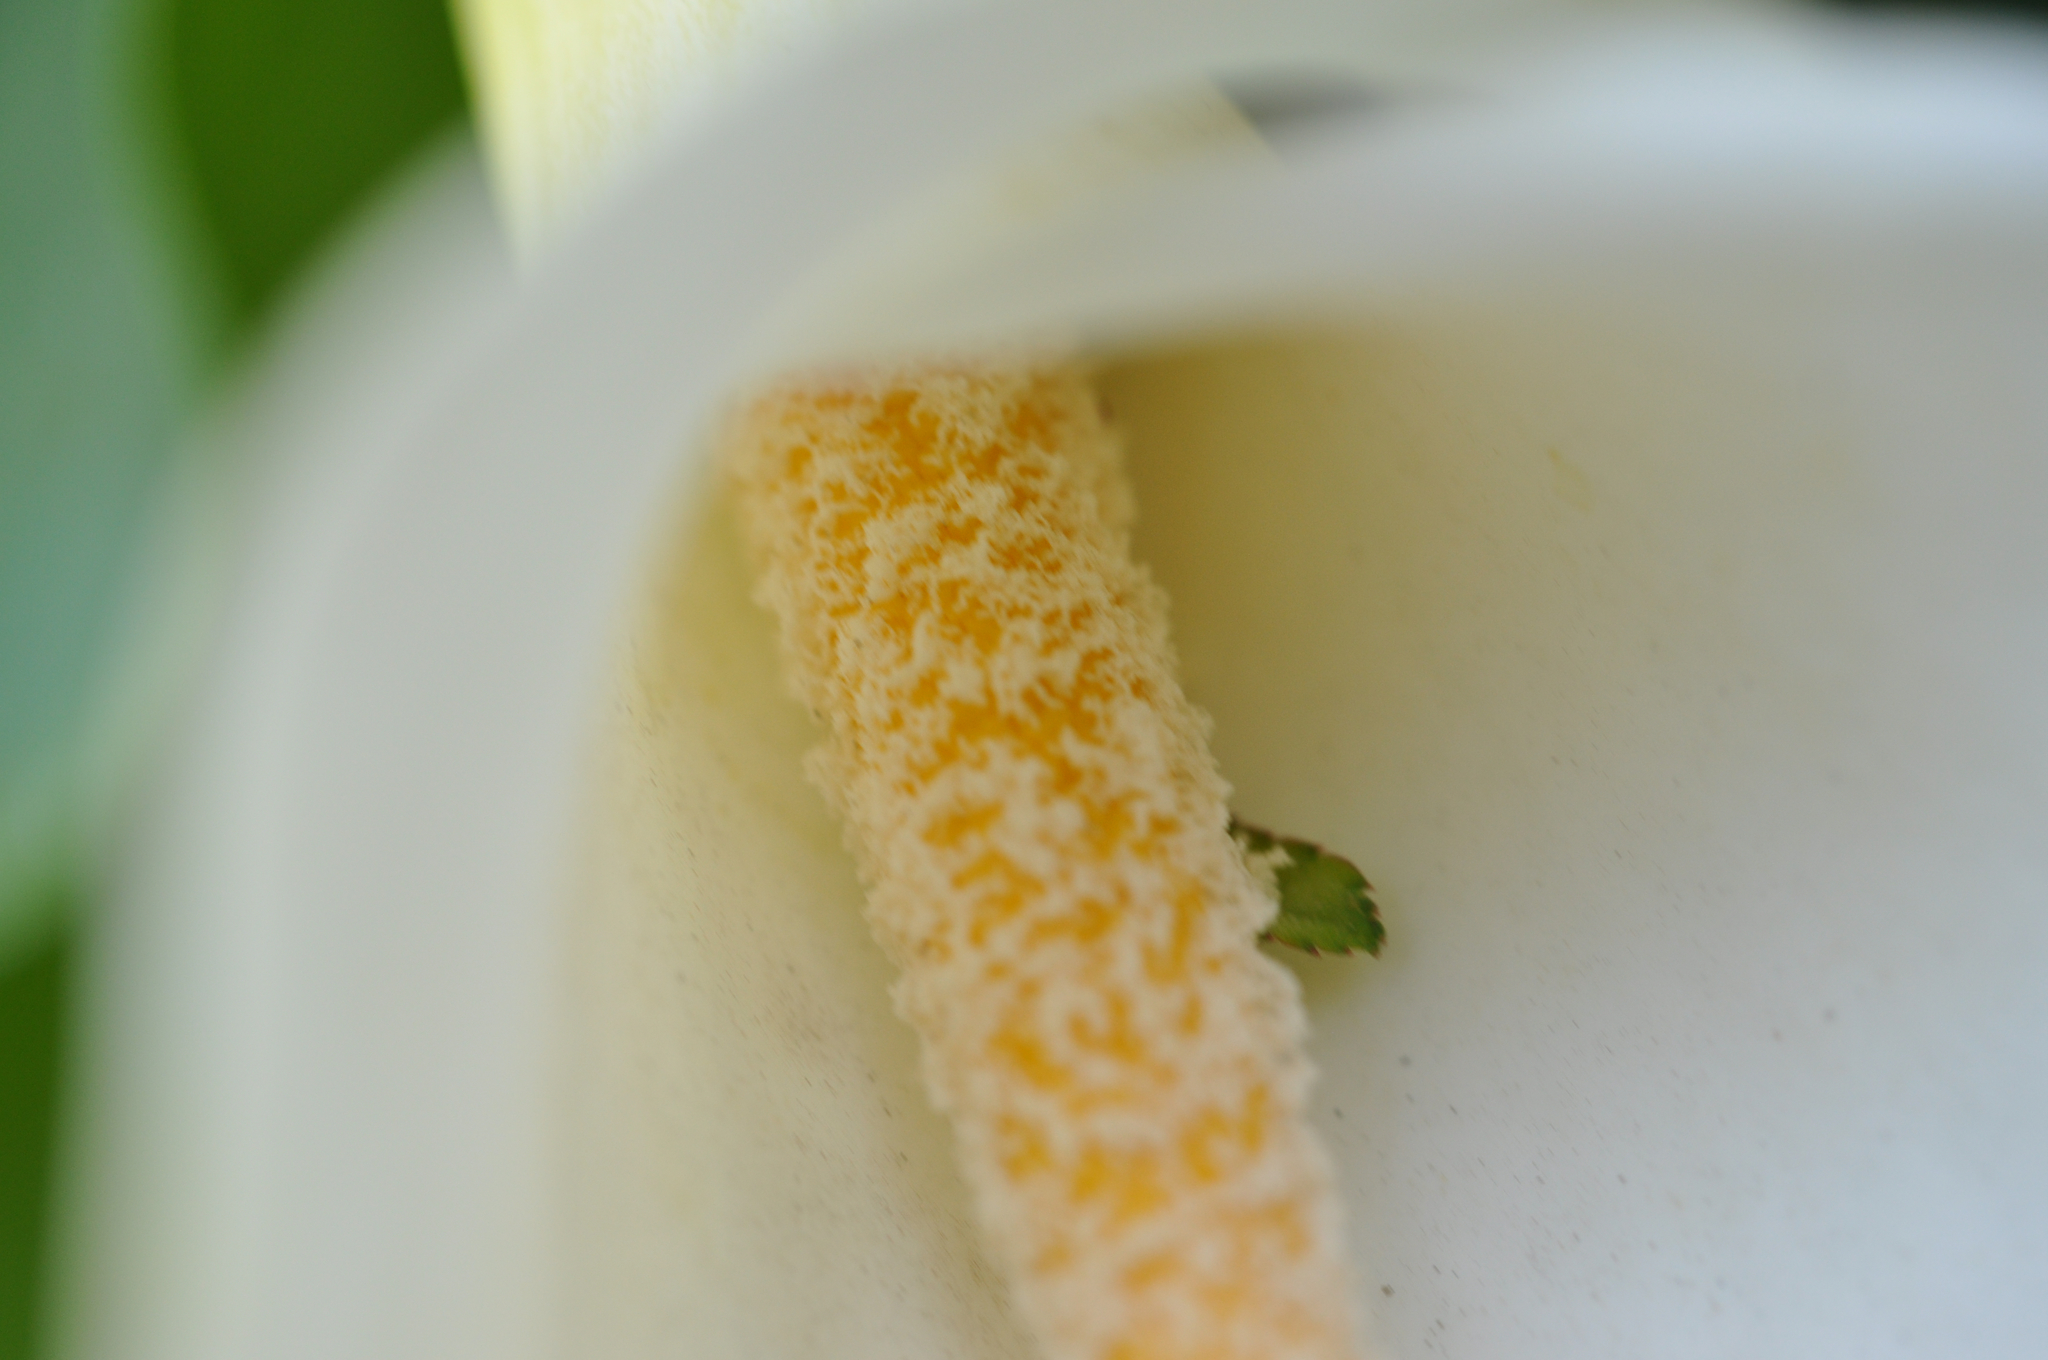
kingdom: Plantae
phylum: Tracheophyta
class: Liliopsida
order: Alismatales
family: Araceae
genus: Zantedeschia
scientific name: Zantedeschia aethiopica
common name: Altar-lily
